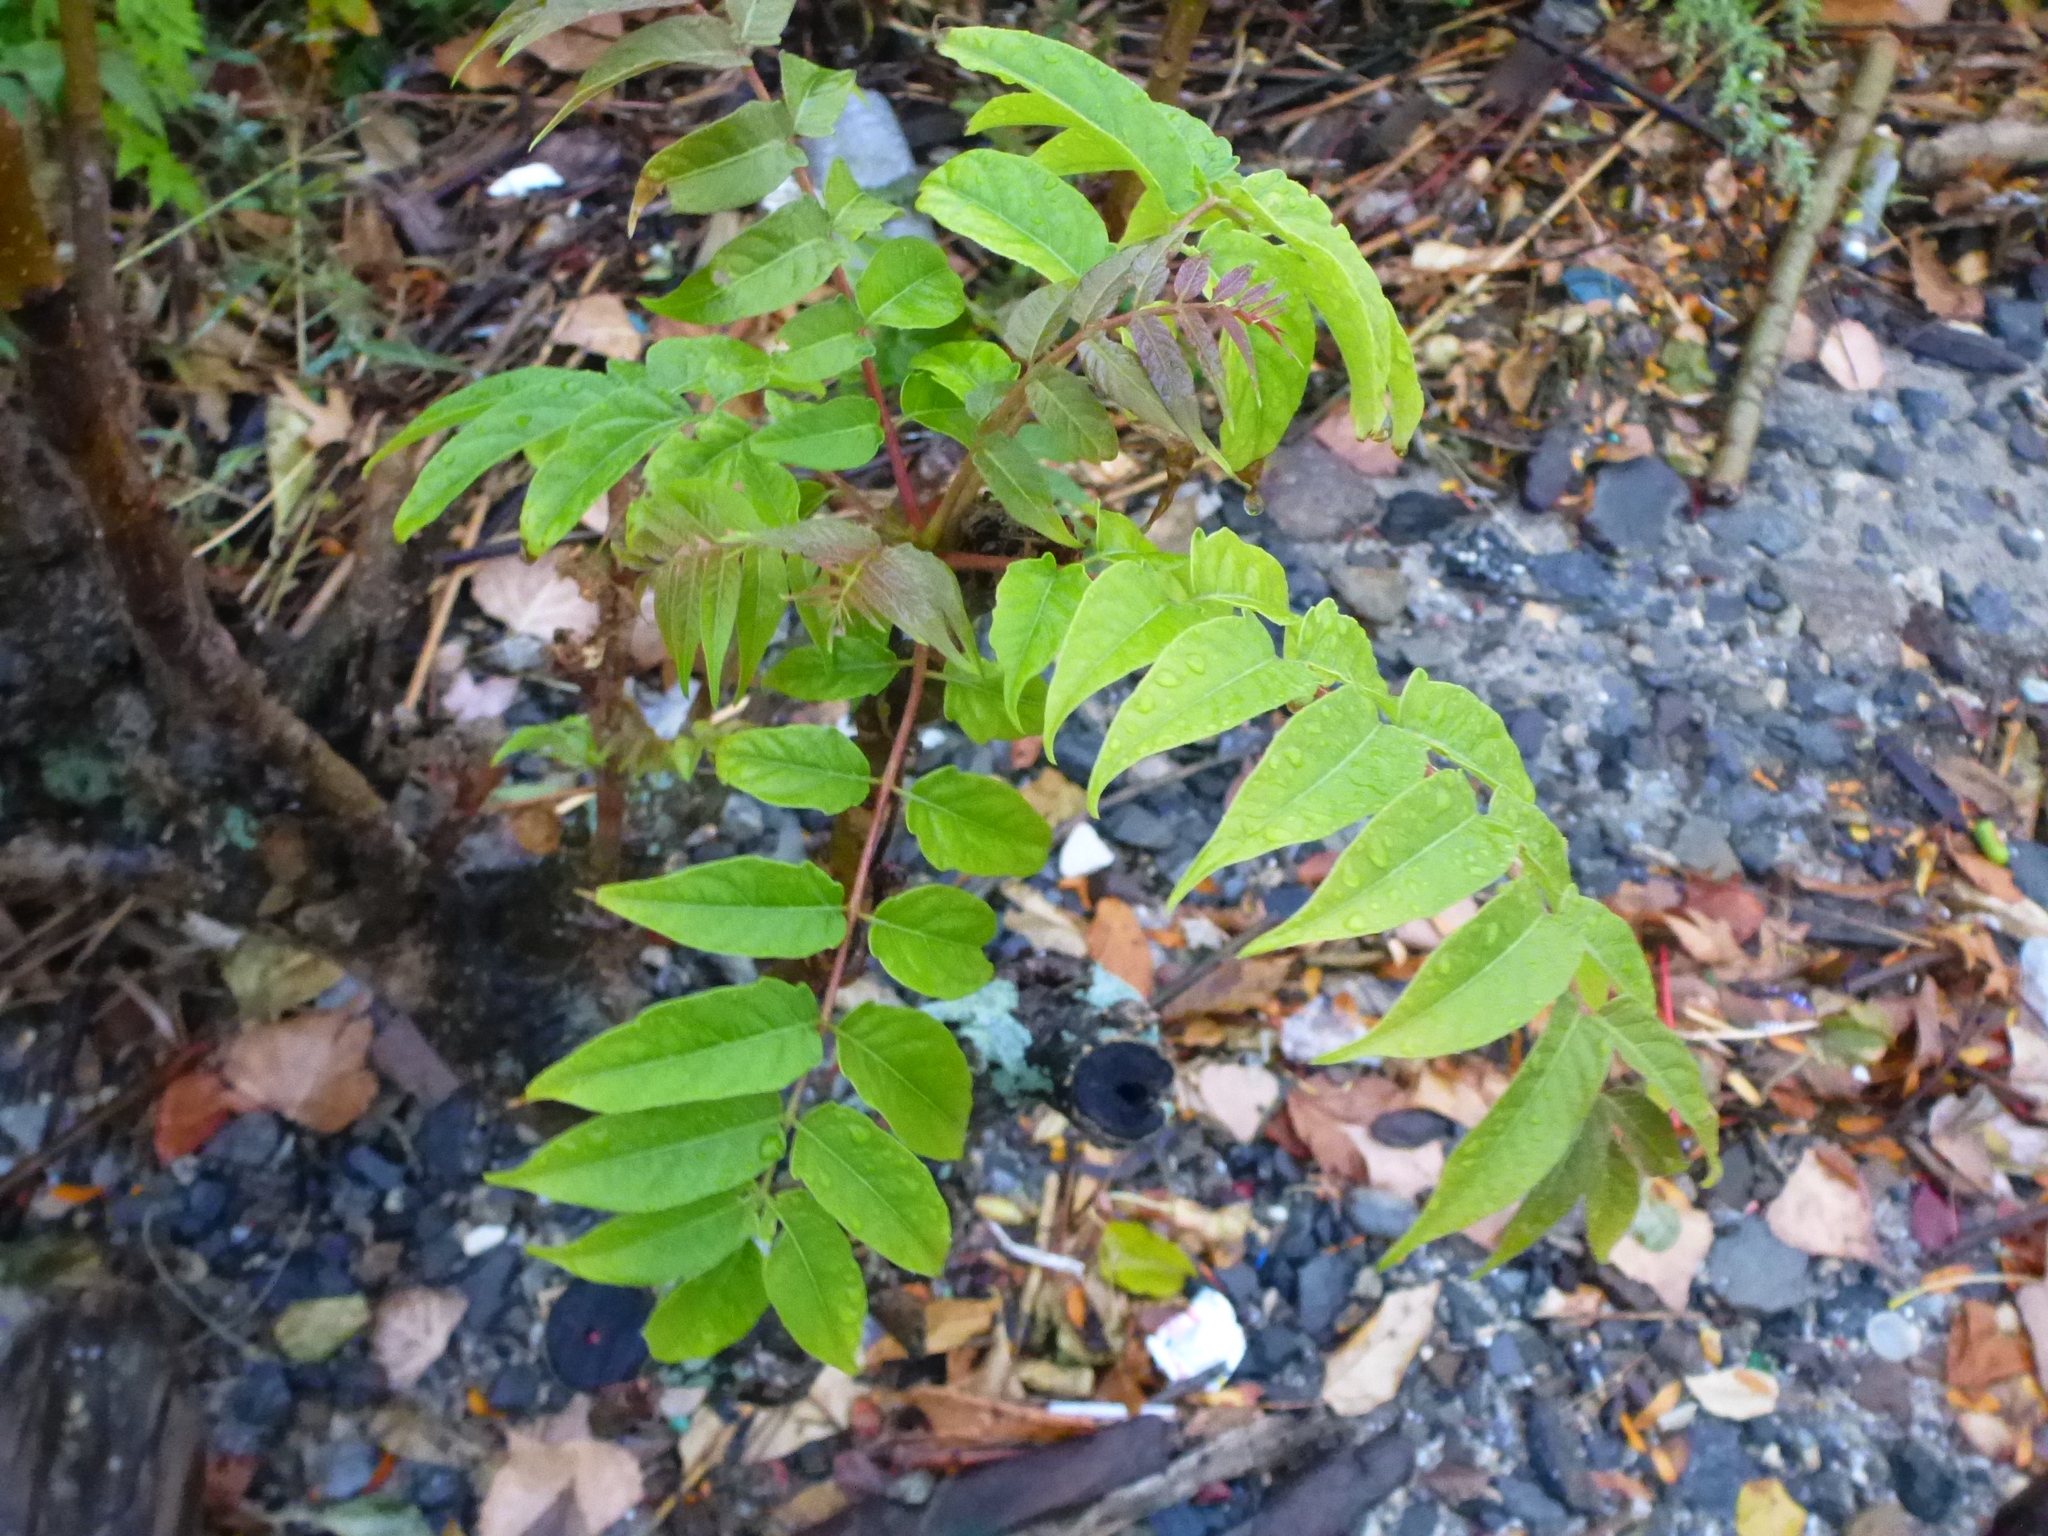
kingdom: Plantae
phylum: Tracheophyta
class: Magnoliopsida
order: Sapindales
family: Simaroubaceae
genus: Ailanthus
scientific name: Ailanthus altissima
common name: Tree-of-heaven
